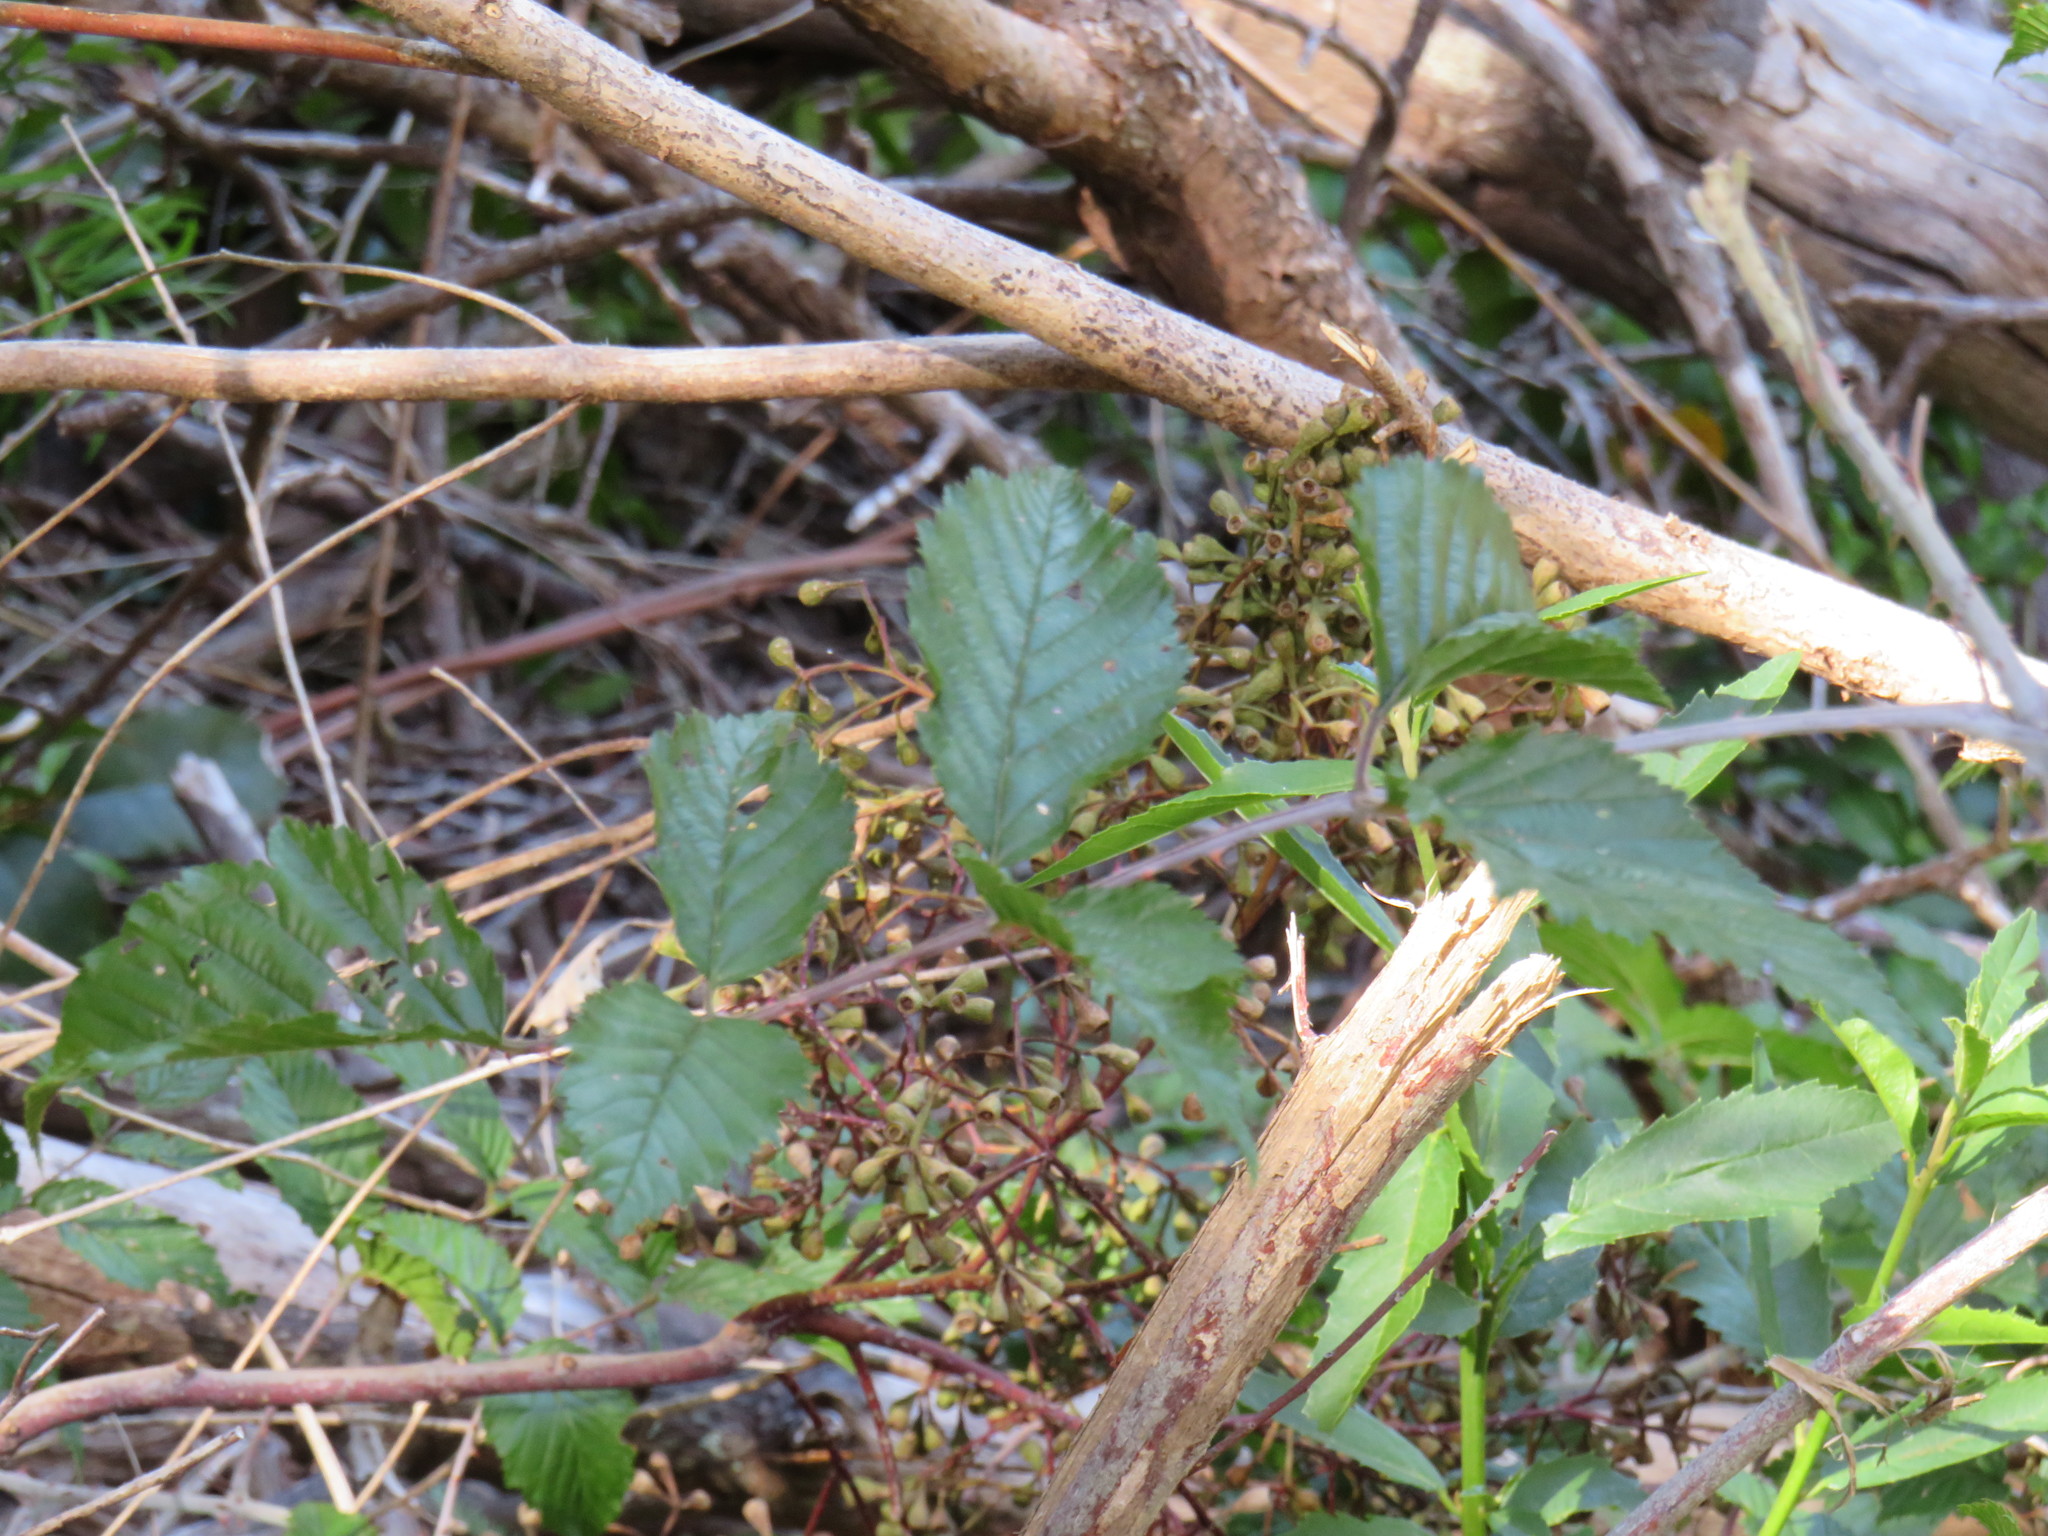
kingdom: Plantae
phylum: Tracheophyta
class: Magnoliopsida
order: Rosales
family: Rosaceae
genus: Rubus
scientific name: Rubus pinnatus
